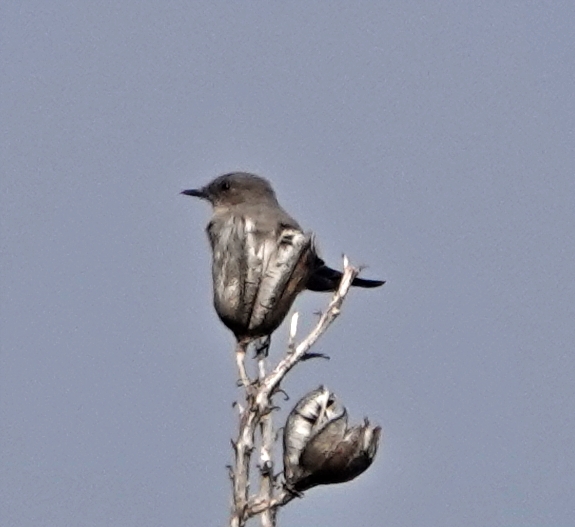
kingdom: Animalia
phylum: Chordata
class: Aves
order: Passeriformes
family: Tyrannidae
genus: Sayornis
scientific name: Sayornis saya
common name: Say's phoebe
